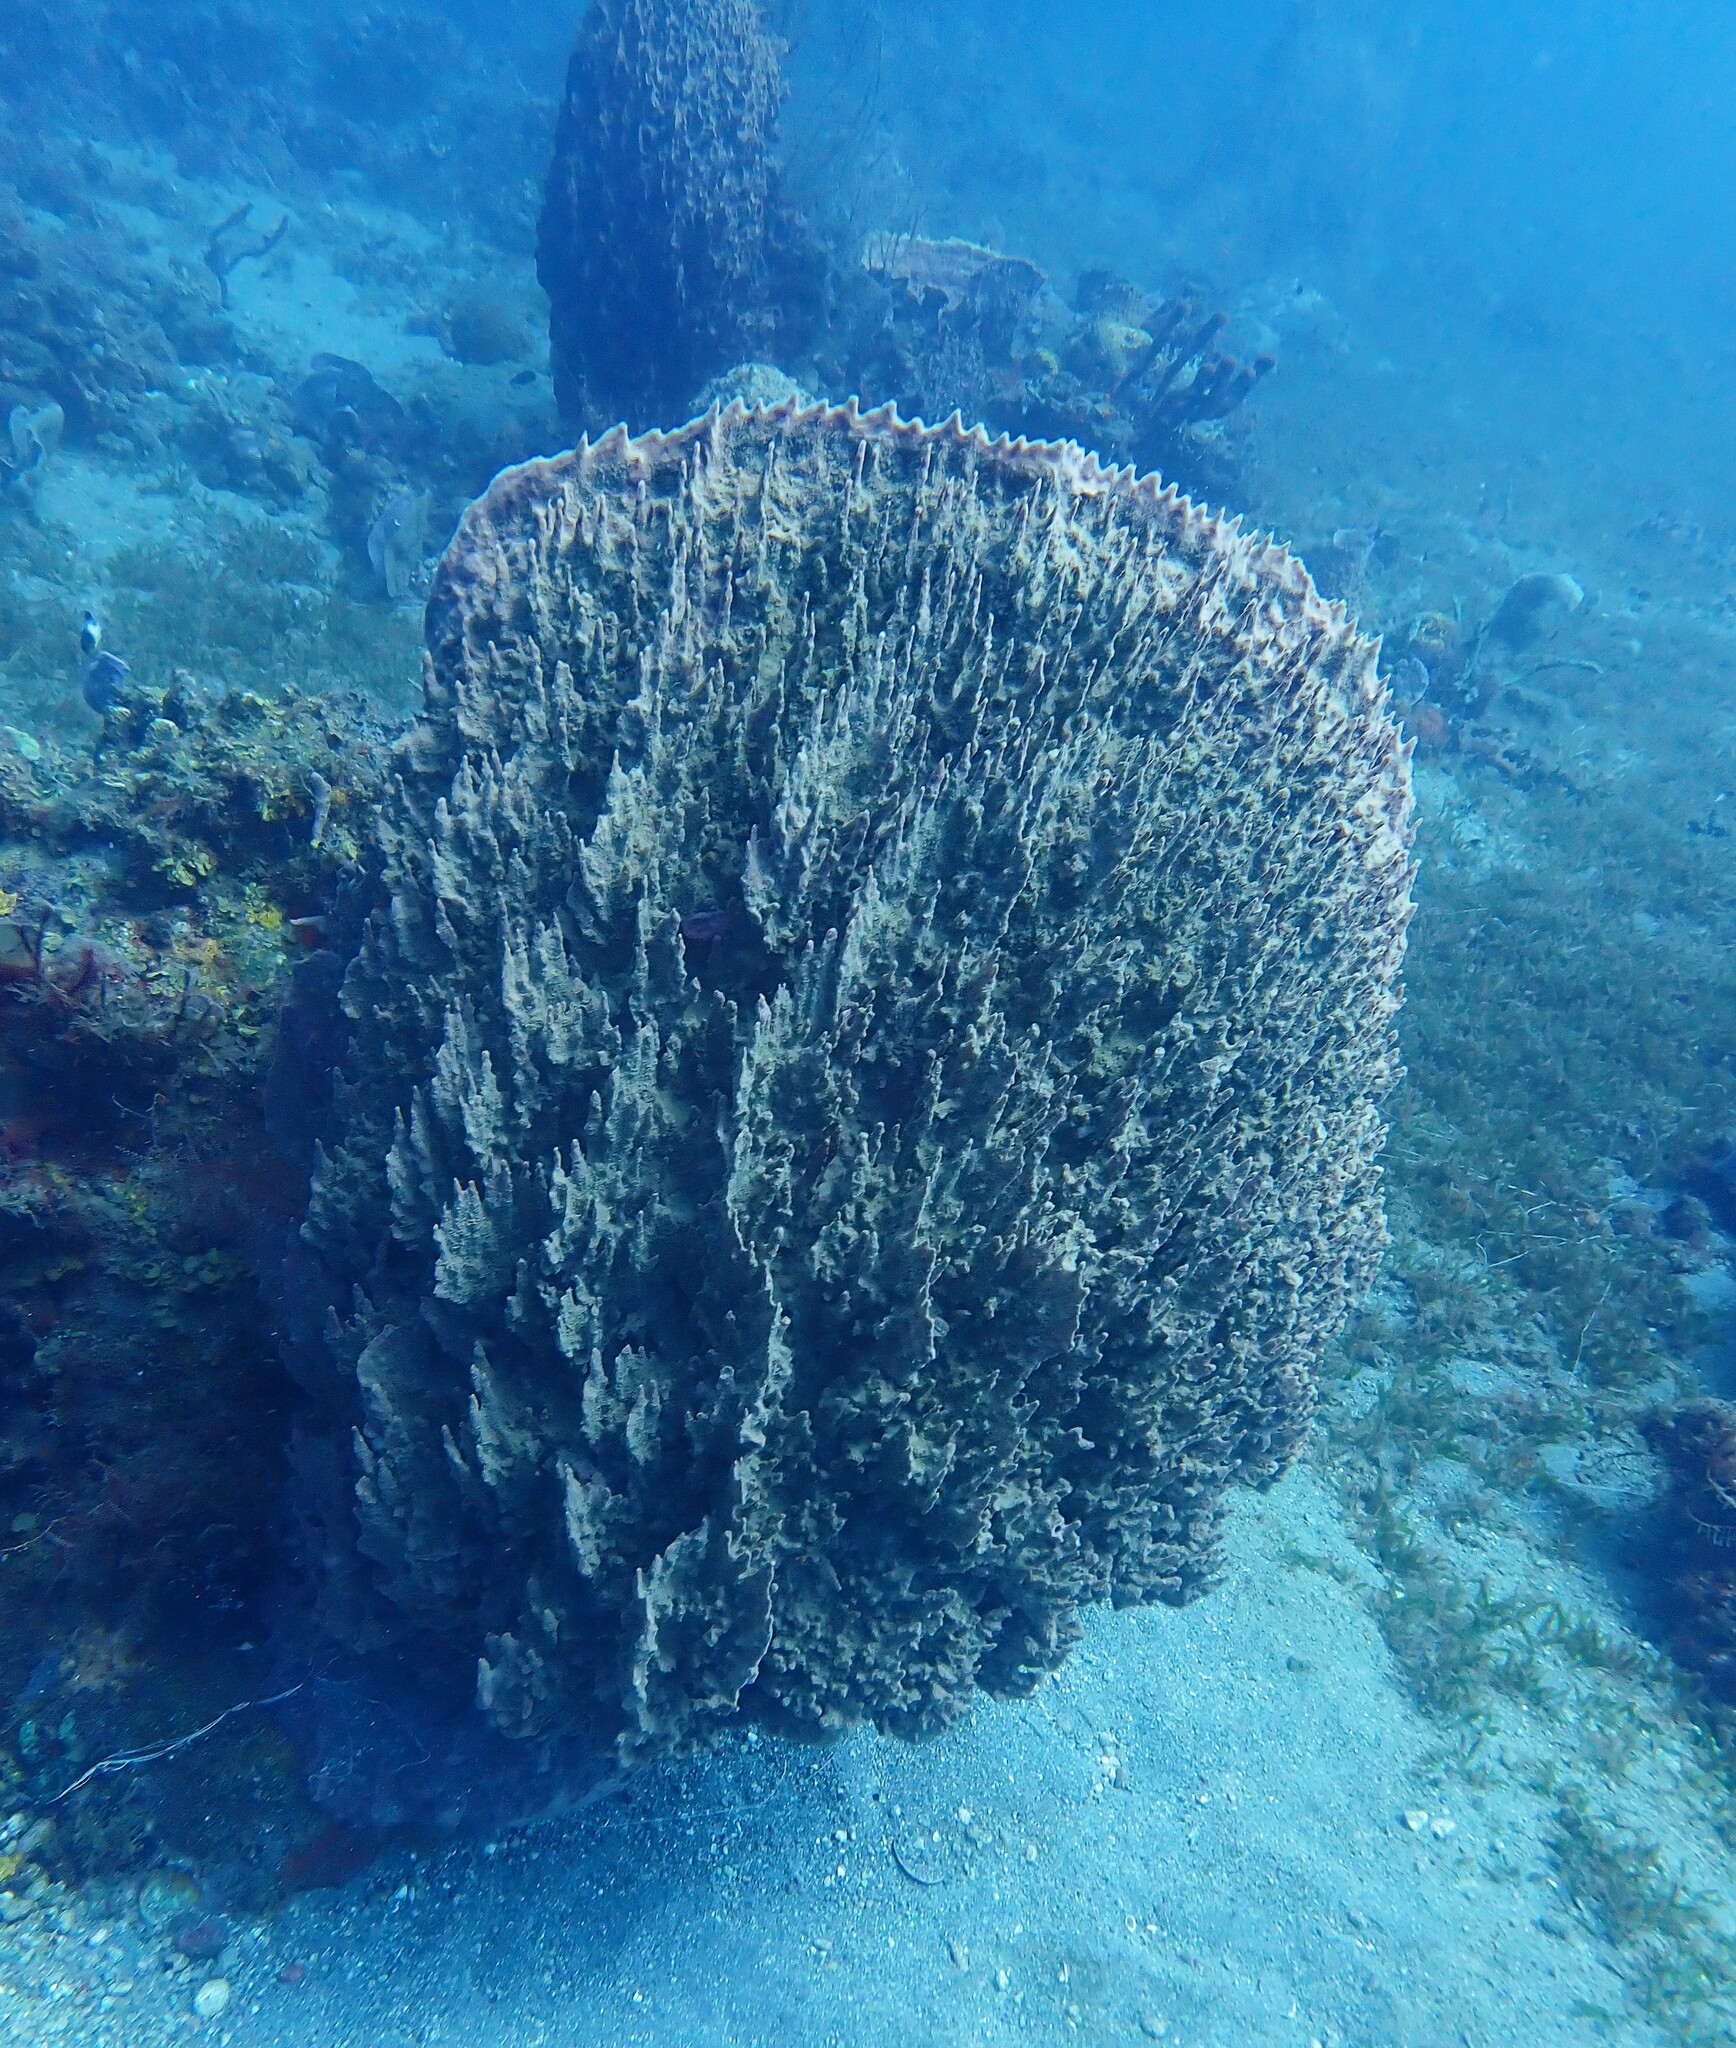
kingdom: Animalia
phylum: Porifera
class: Demospongiae
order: Haplosclerida
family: Petrosiidae
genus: Xestospongia
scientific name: Xestospongia muta
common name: Giant barrel sponge
